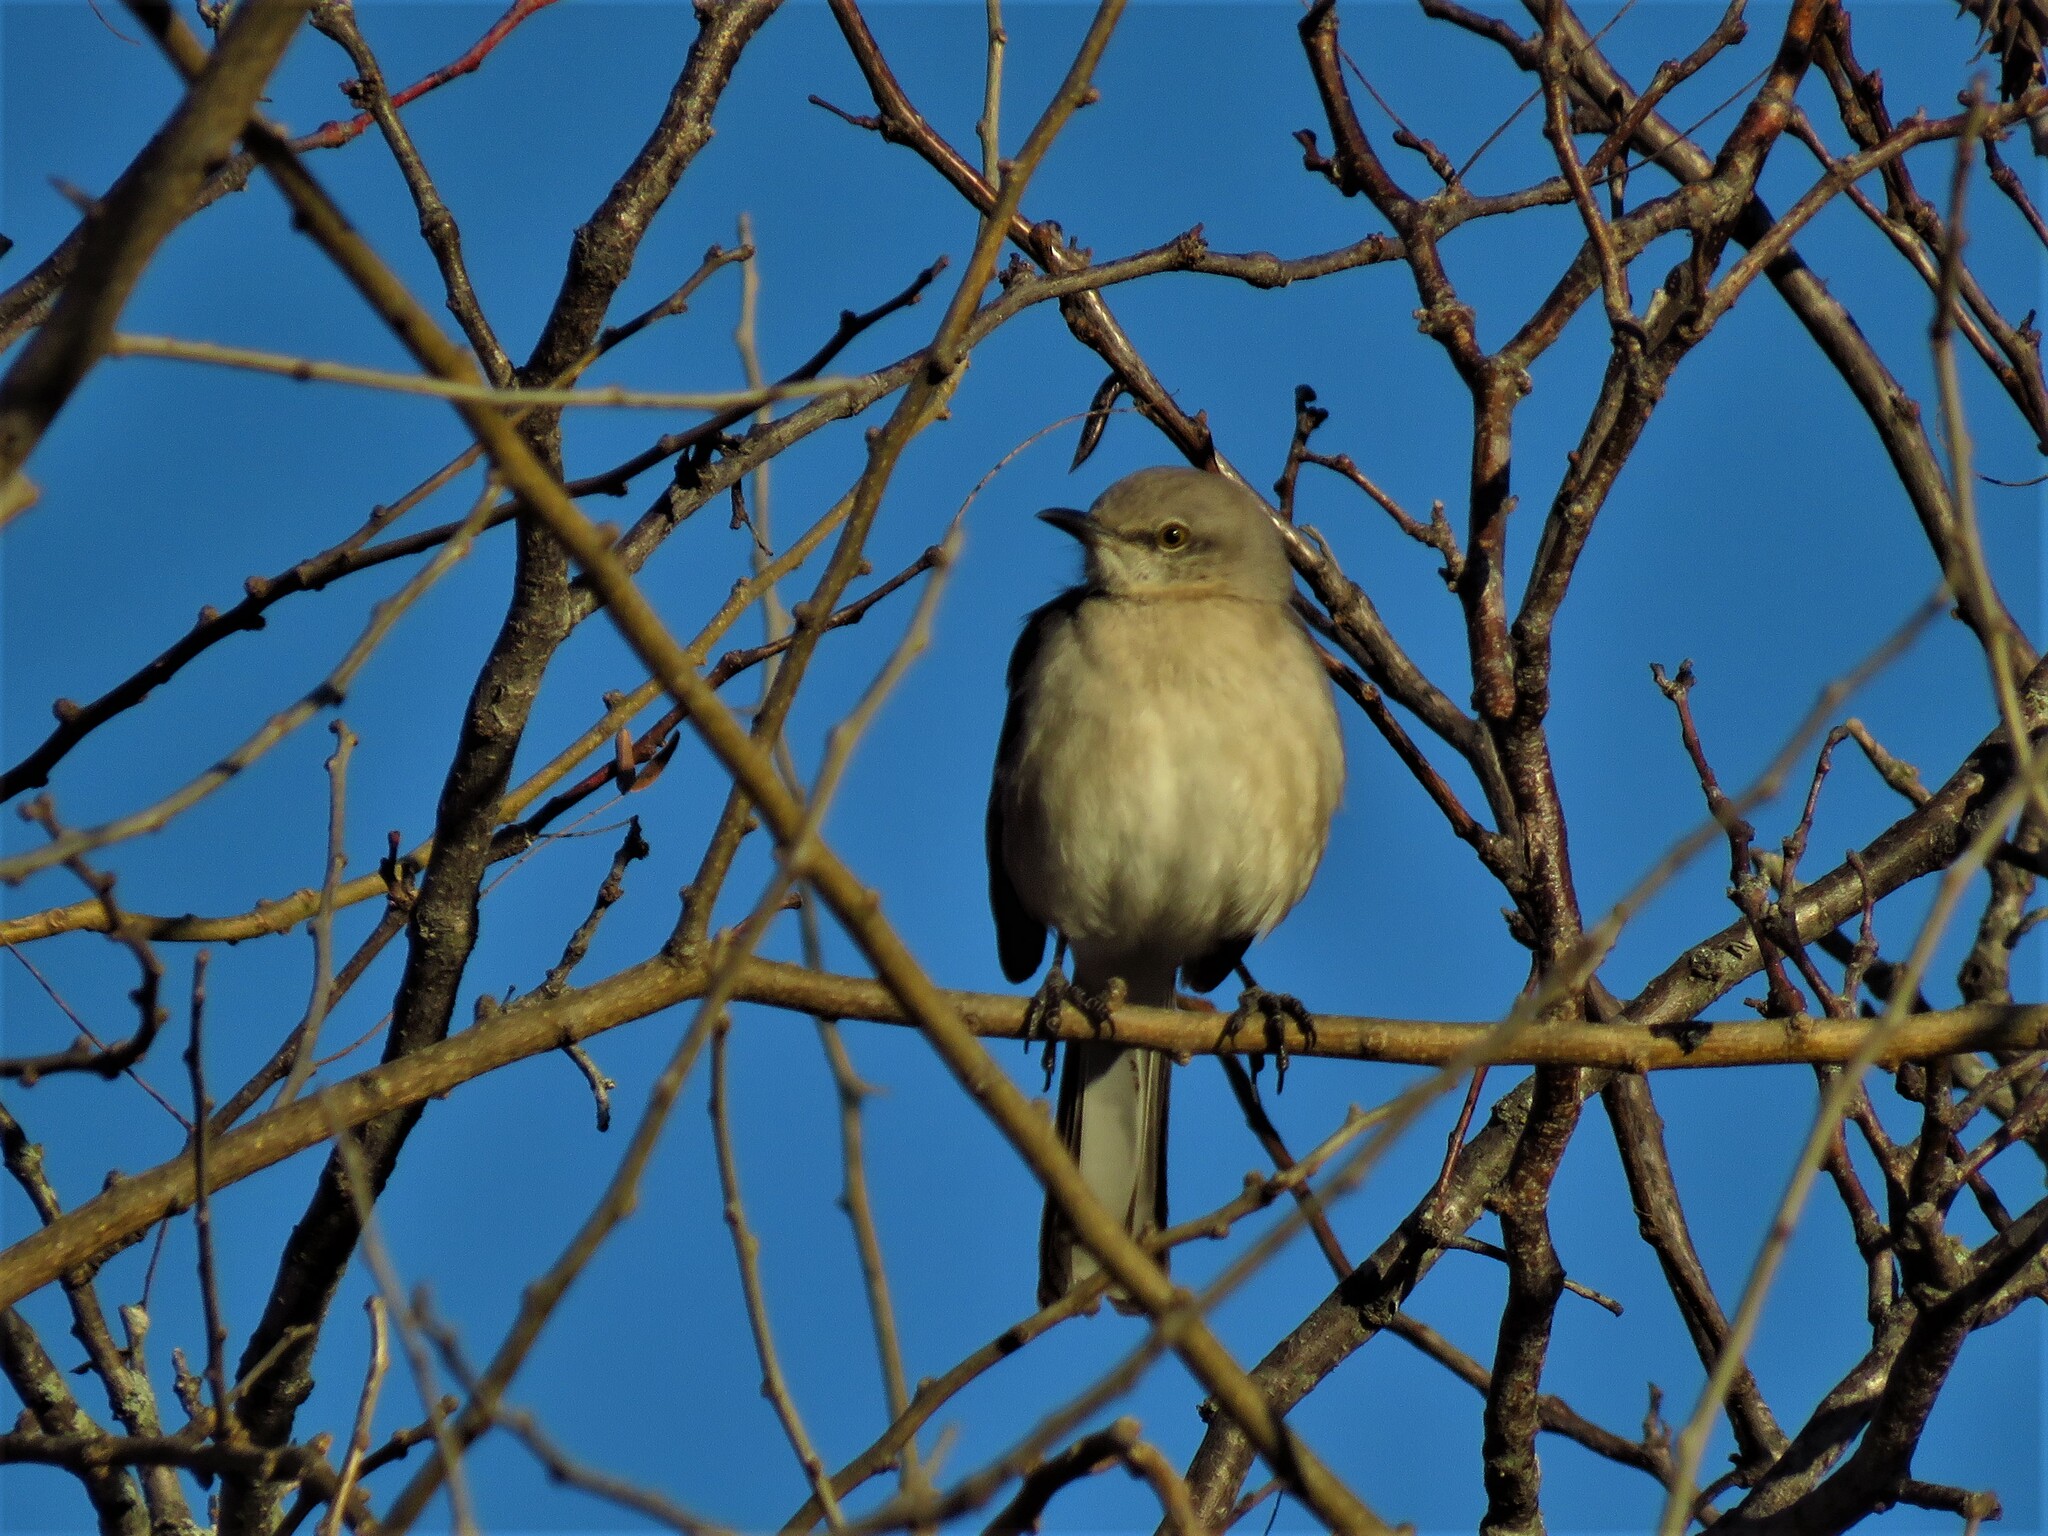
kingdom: Animalia
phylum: Chordata
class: Aves
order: Passeriformes
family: Mimidae
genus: Mimus
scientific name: Mimus polyglottos
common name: Northern mockingbird
